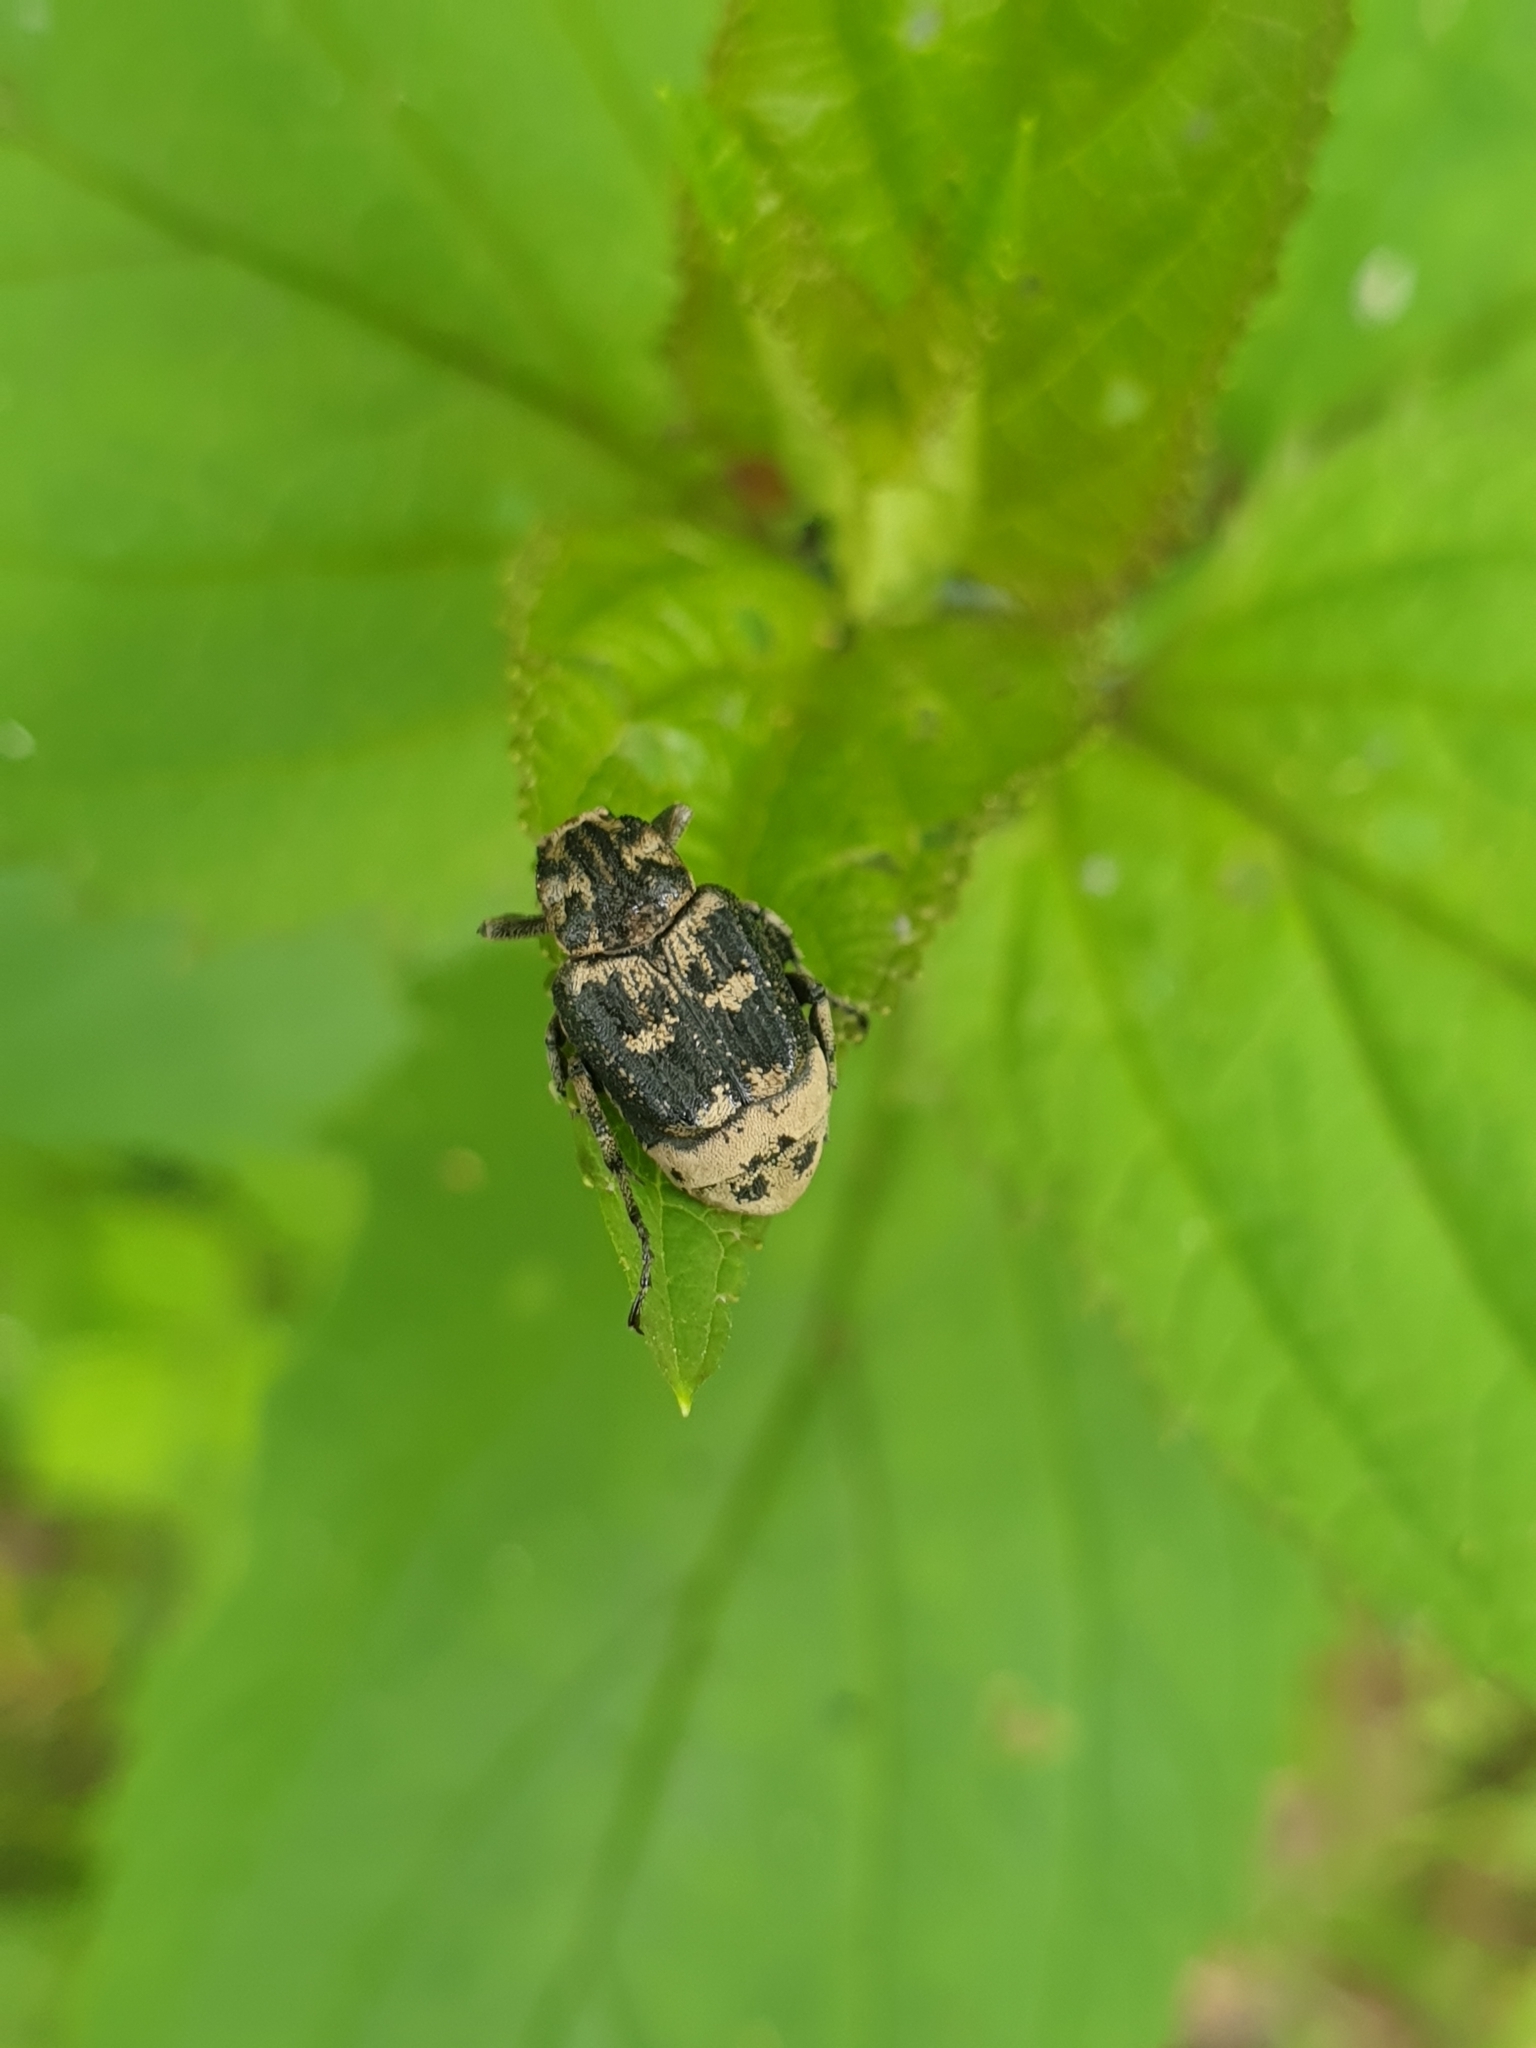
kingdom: Animalia
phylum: Arthropoda
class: Insecta
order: Coleoptera
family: Scarabaeidae
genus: Valgus
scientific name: Valgus hemipterus
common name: Bug flower chafer
